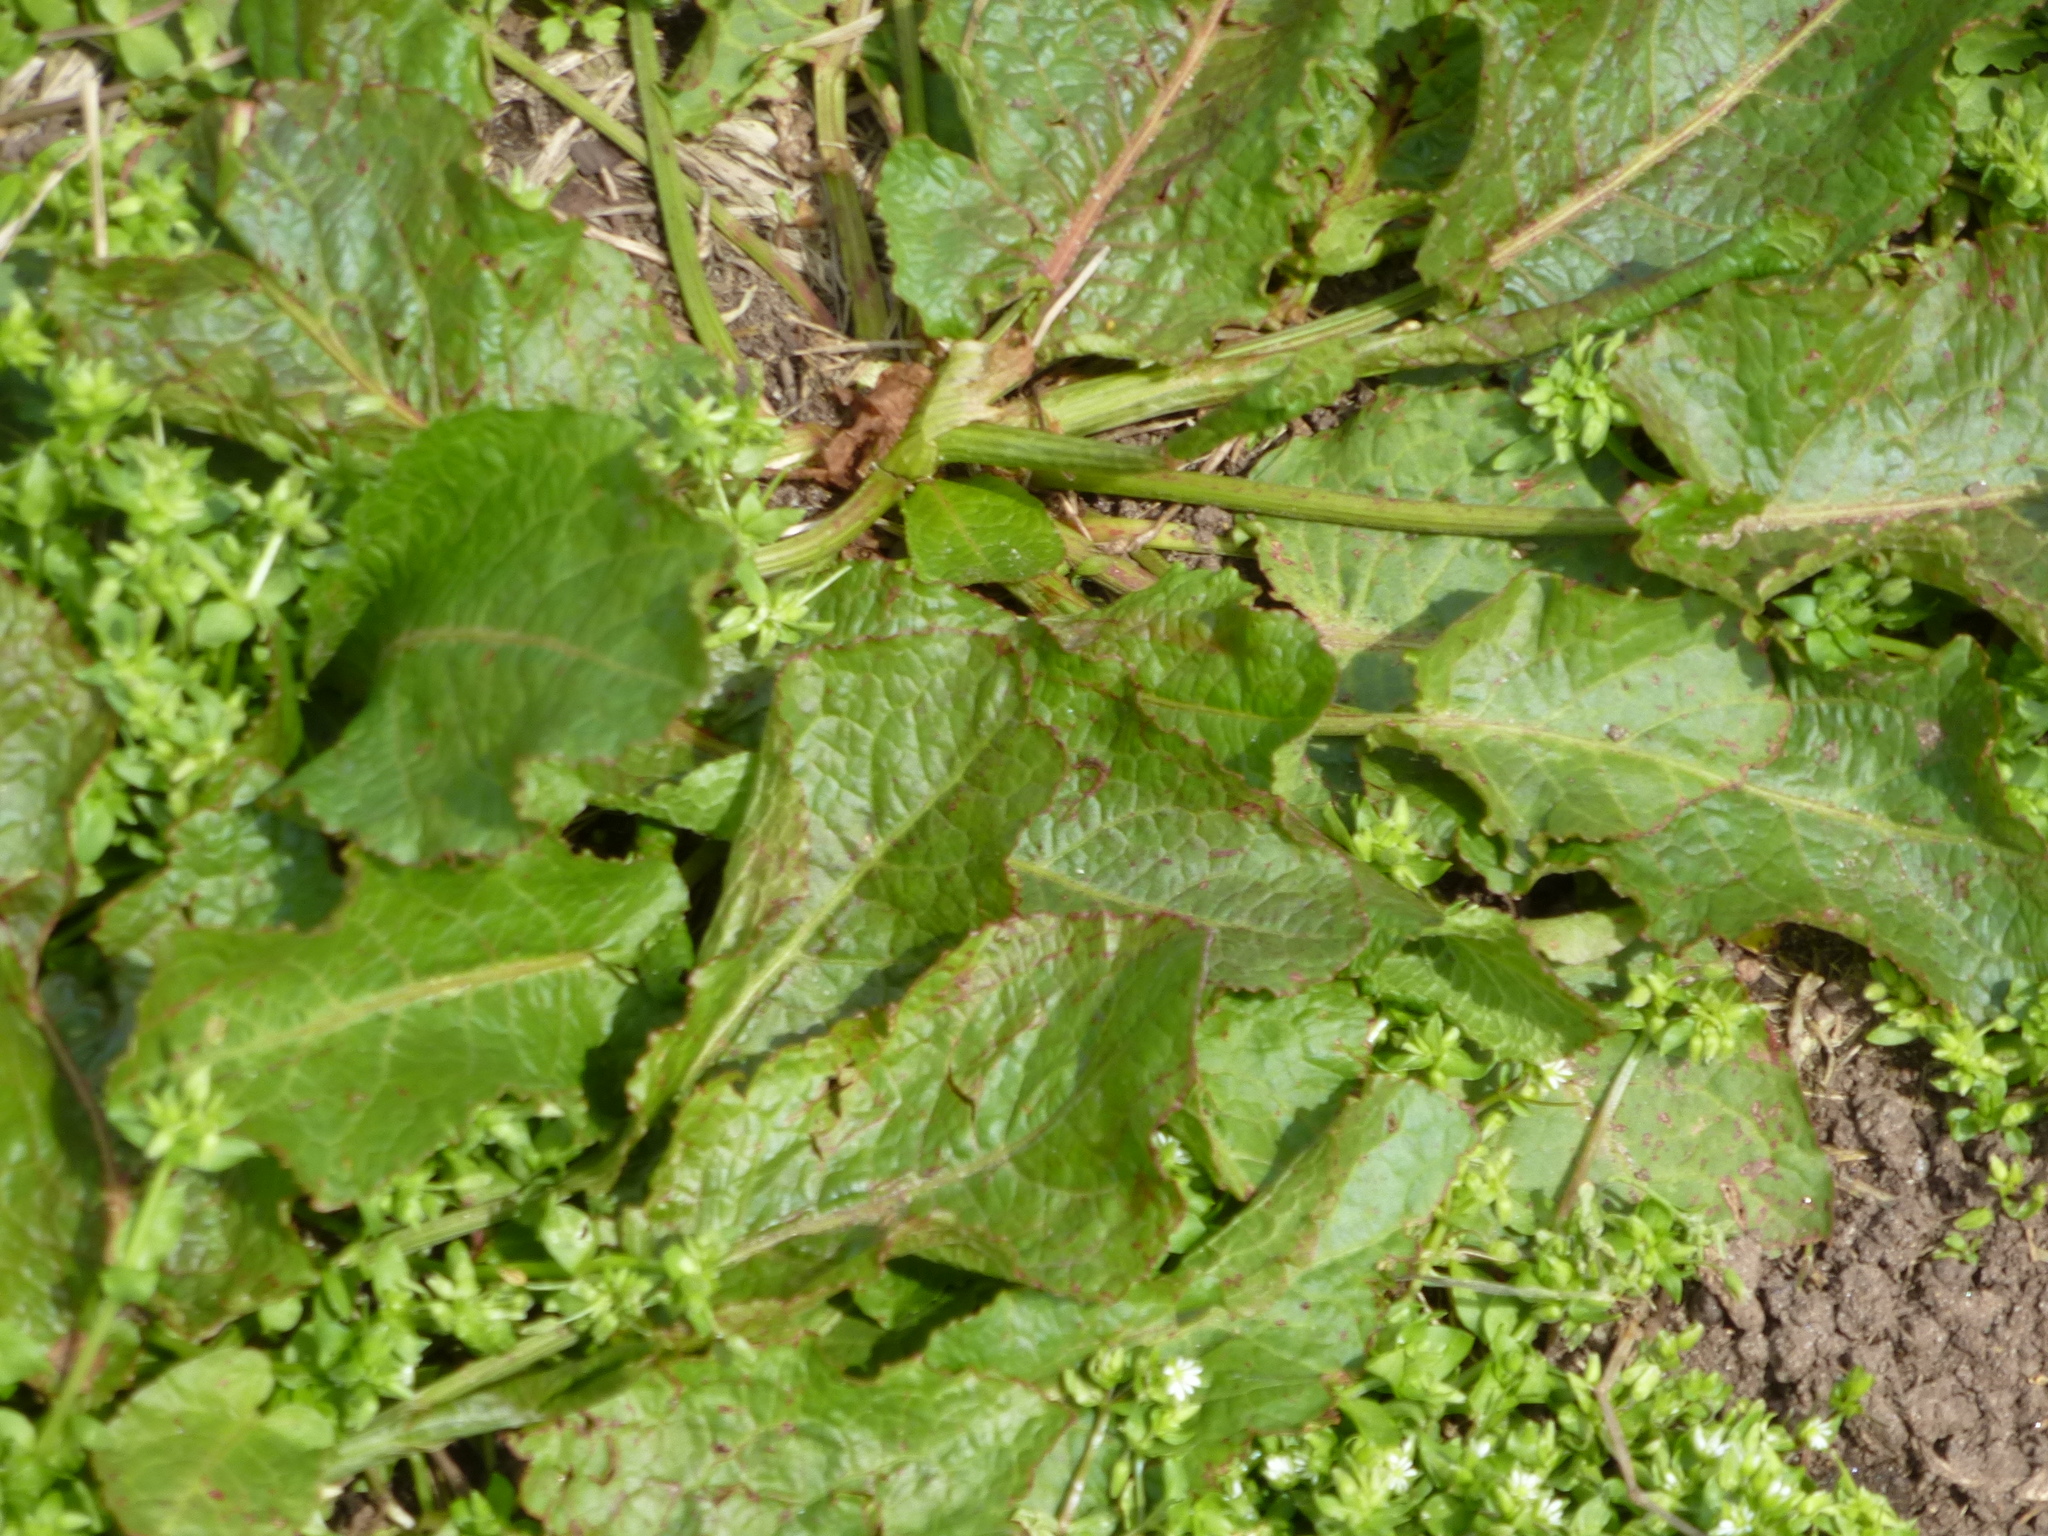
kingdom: Plantae
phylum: Tracheophyta
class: Magnoliopsida
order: Caryophyllales
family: Polygonaceae
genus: Rumex
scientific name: Rumex obtusifolius
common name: Bitter dock
